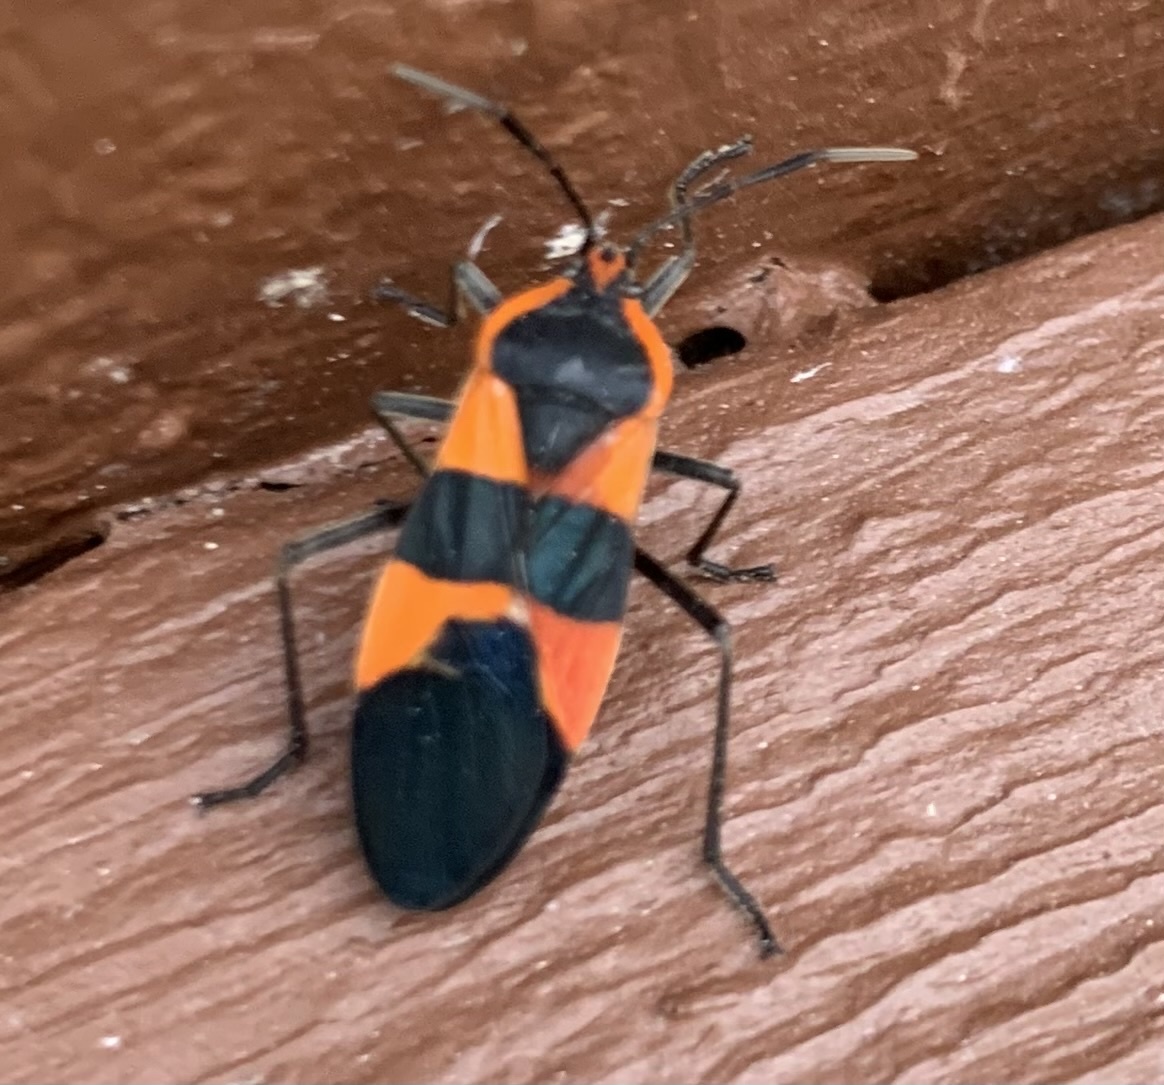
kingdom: Animalia
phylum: Arthropoda
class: Insecta
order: Hemiptera
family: Lygaeidae
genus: Oncopeltus
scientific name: Oncopeltus fasciatus
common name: Large milkweed bug
